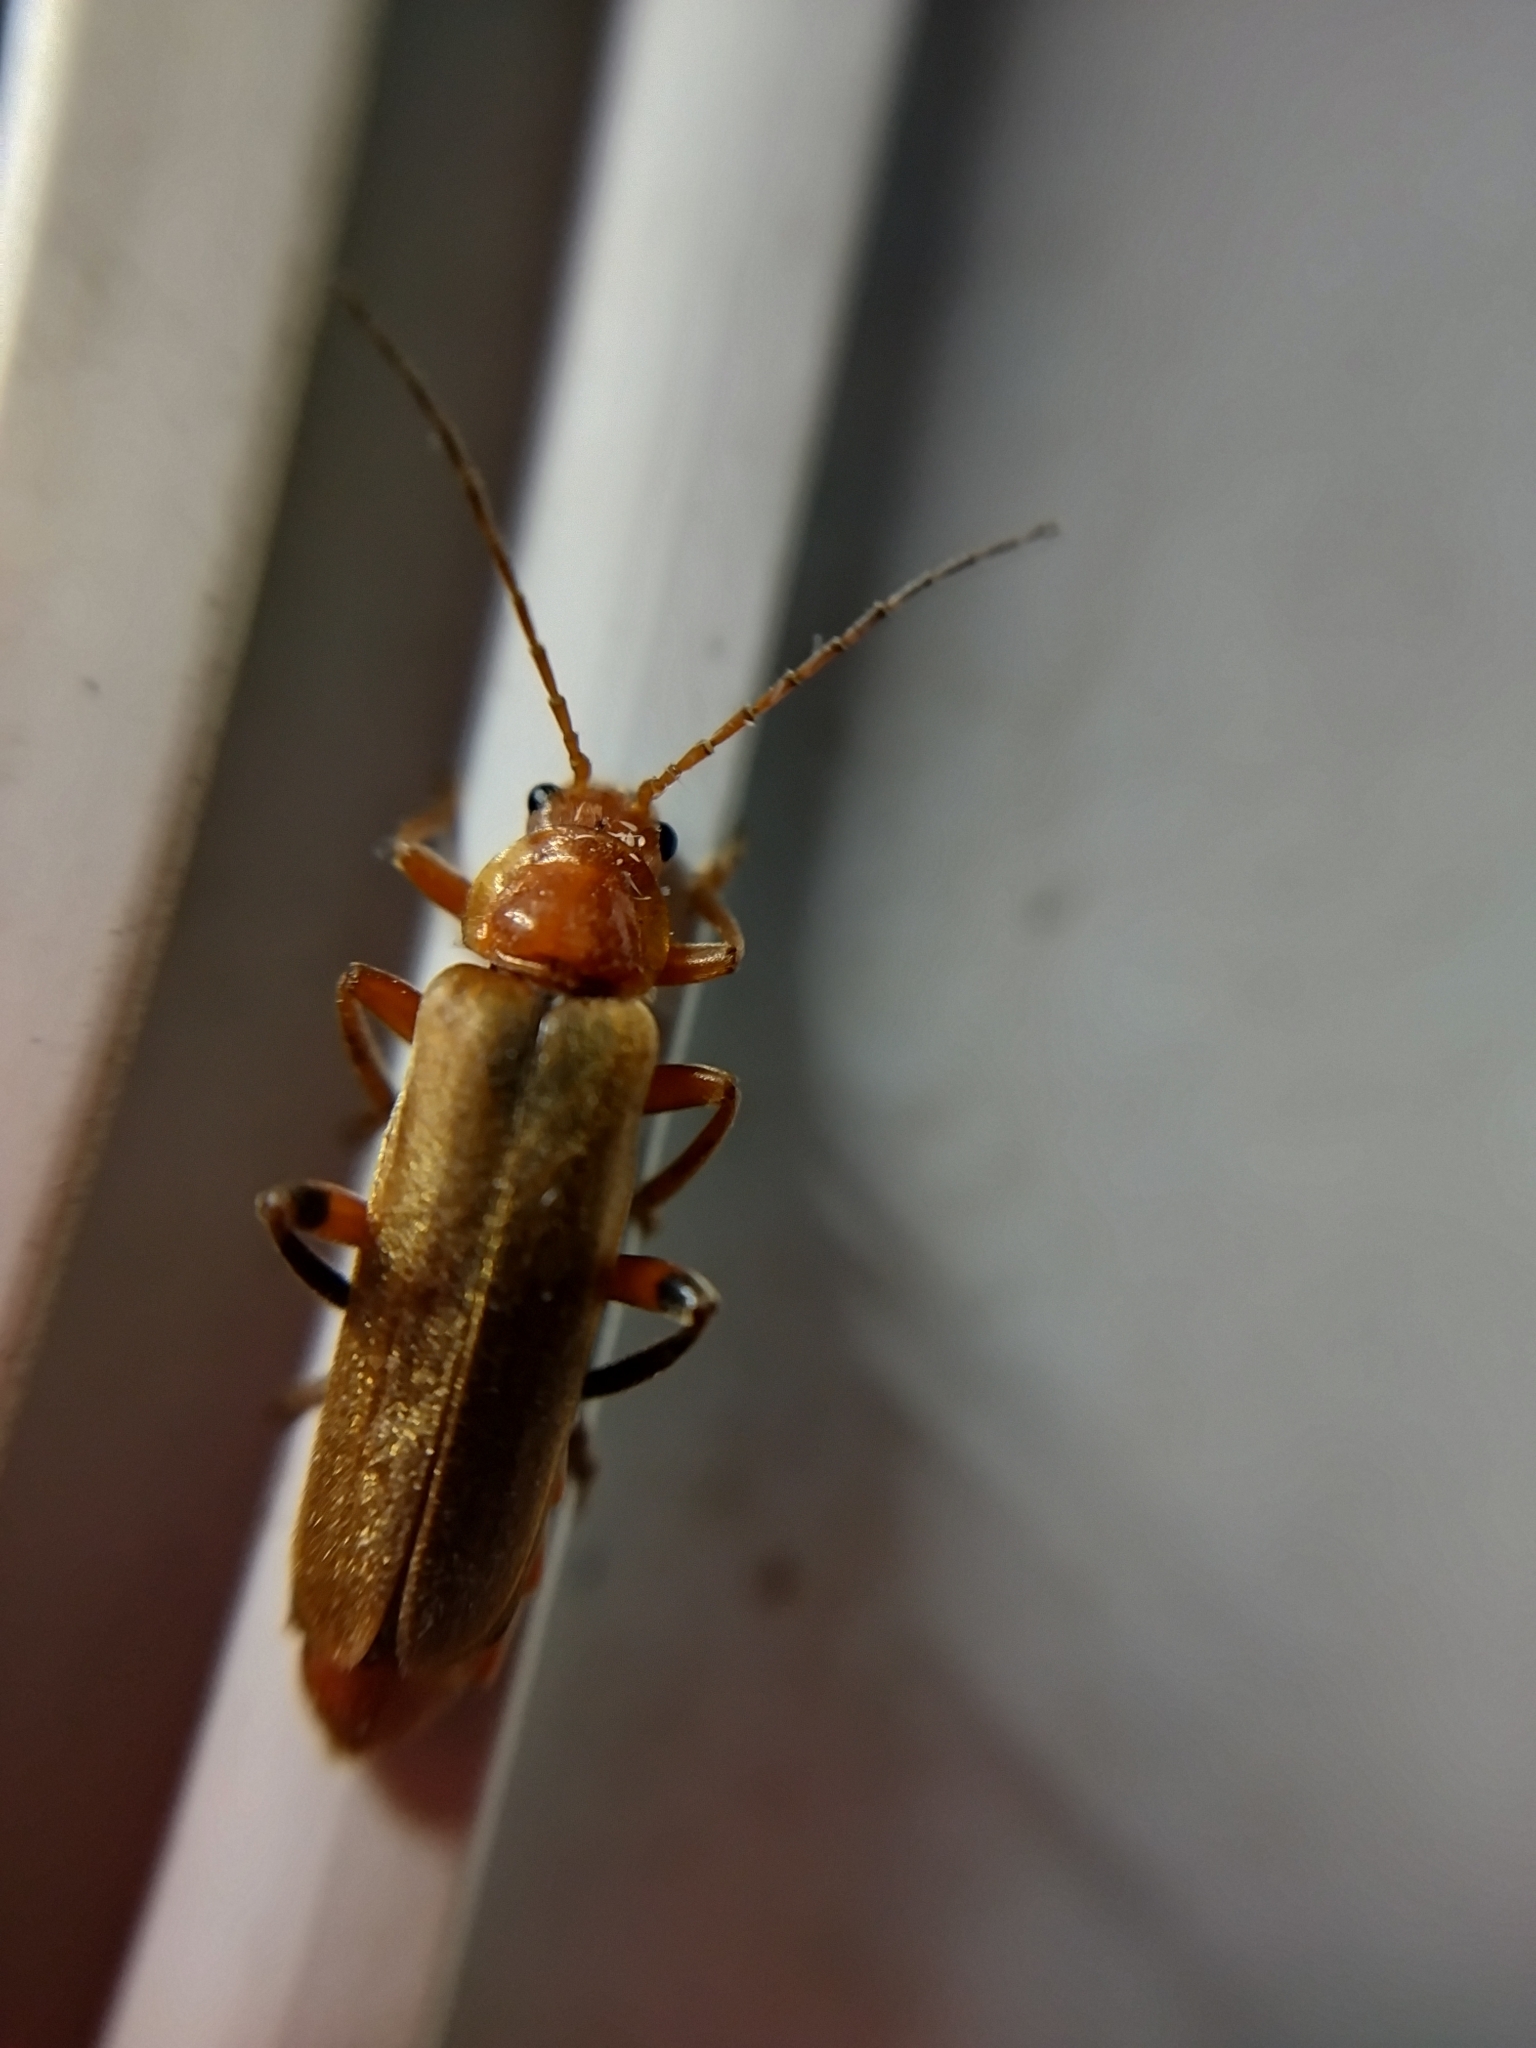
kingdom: Animalia
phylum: Arthropoda
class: Insecta
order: Coleoptera
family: Cantharidae
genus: Cantharis
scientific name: Cantharis livida
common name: Livid soldier beetle
